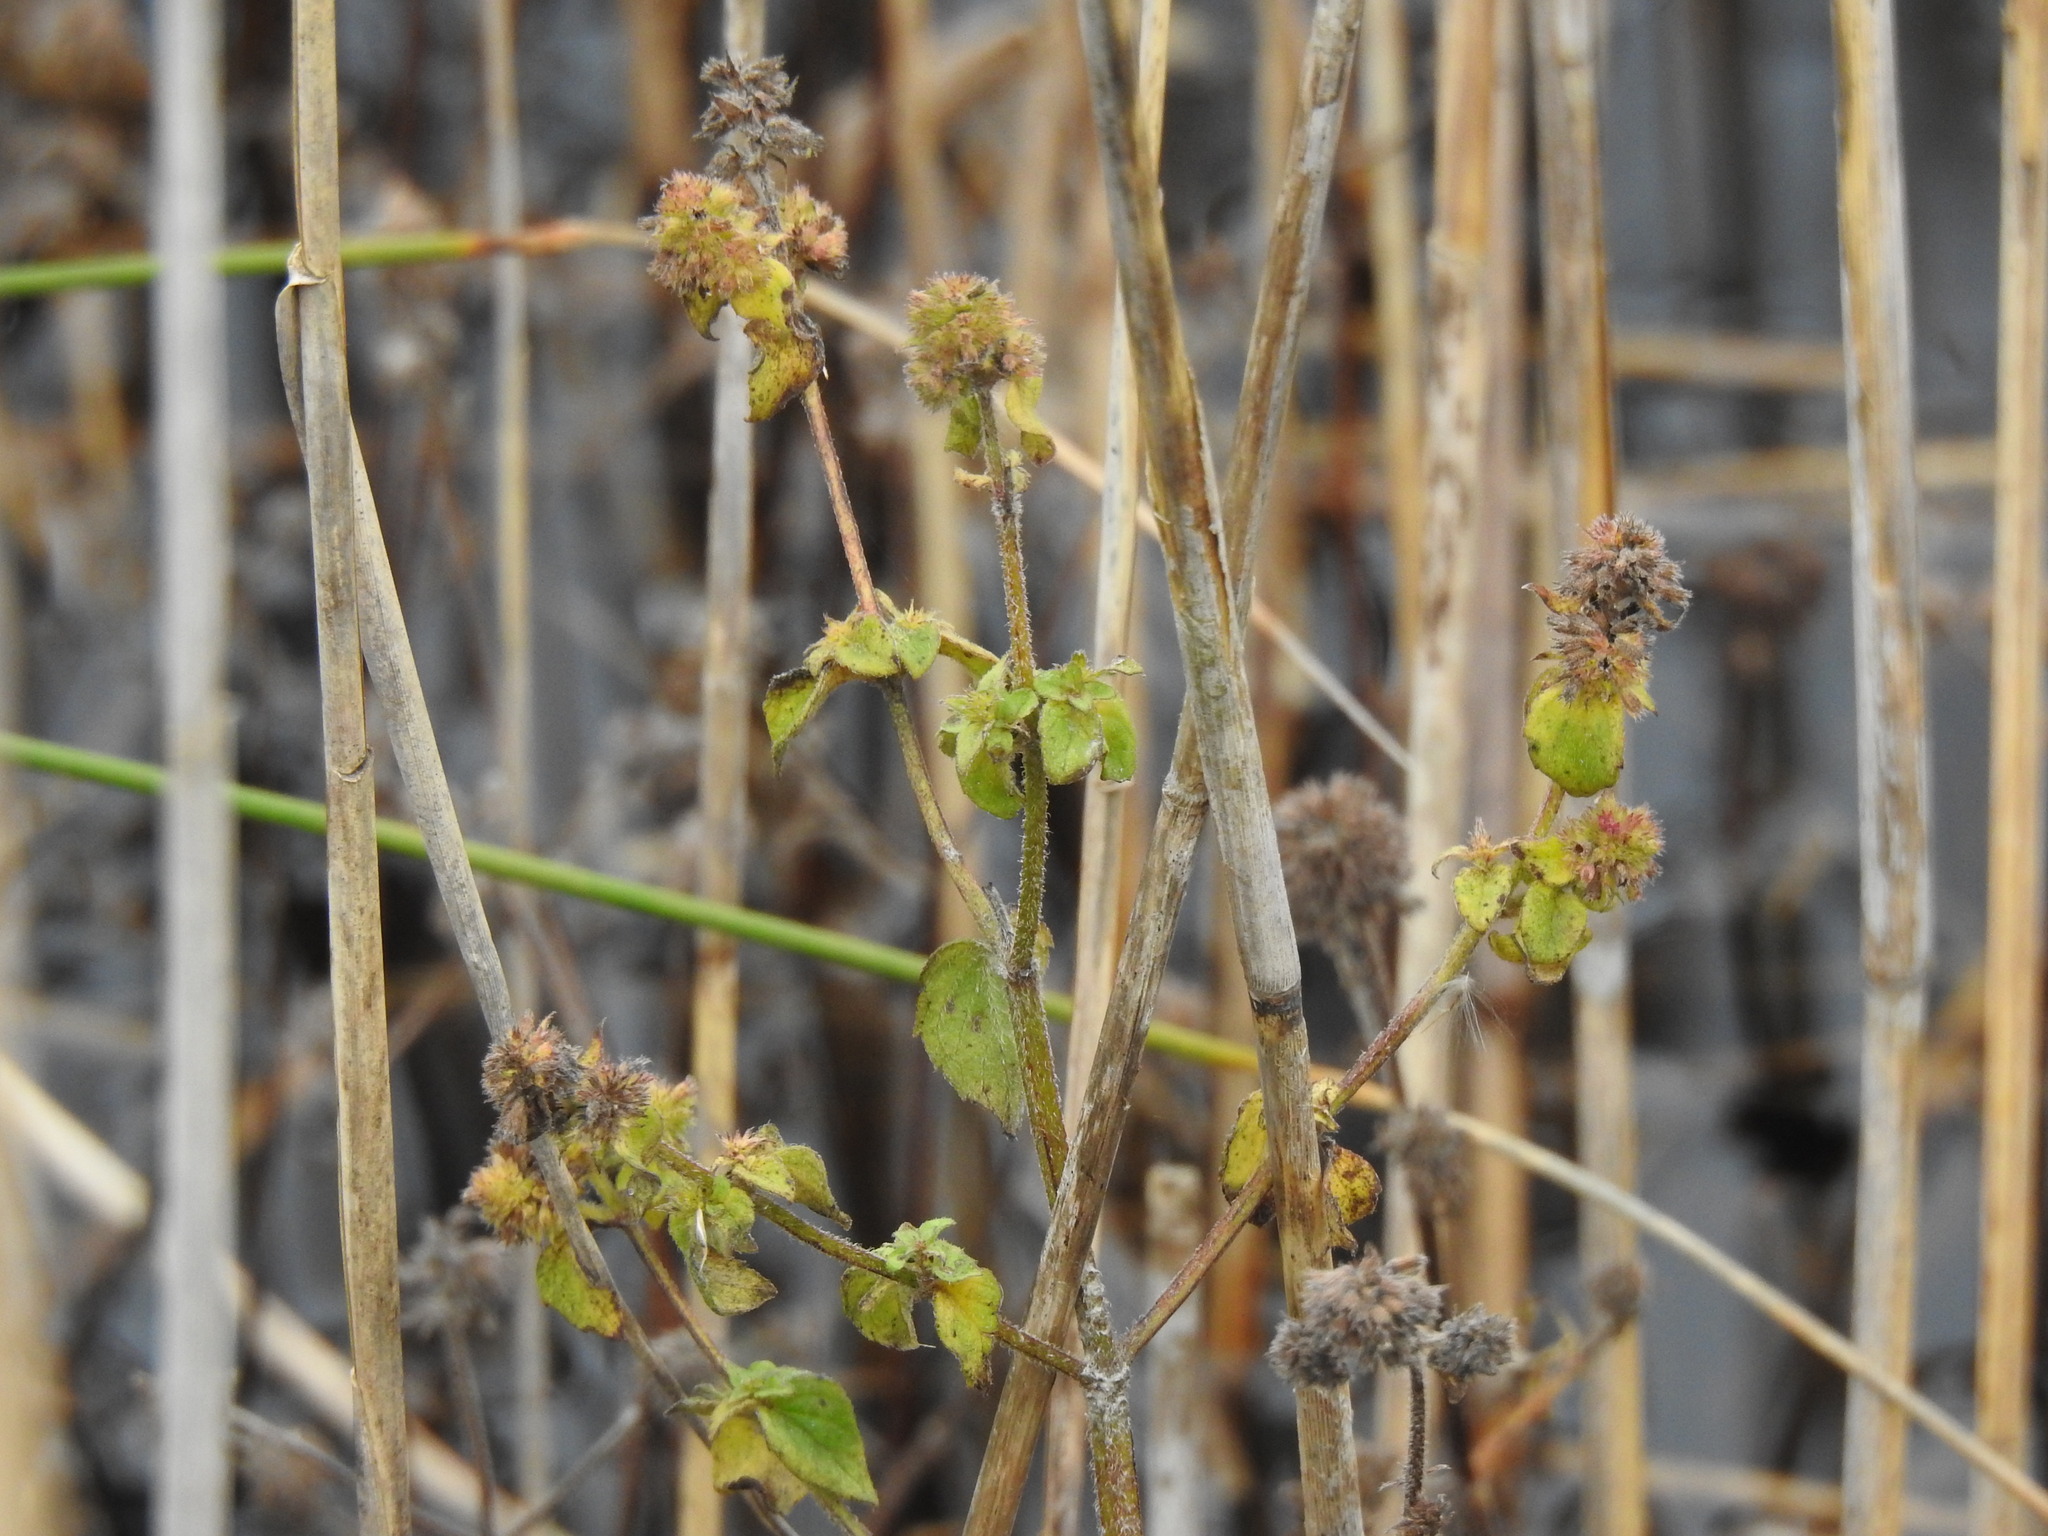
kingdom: Plantae
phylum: Tracheophyta
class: Magnoliopsida
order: Lamiales
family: Lamiaceae
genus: Mentha
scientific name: Mentha aquatica
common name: Water mint
